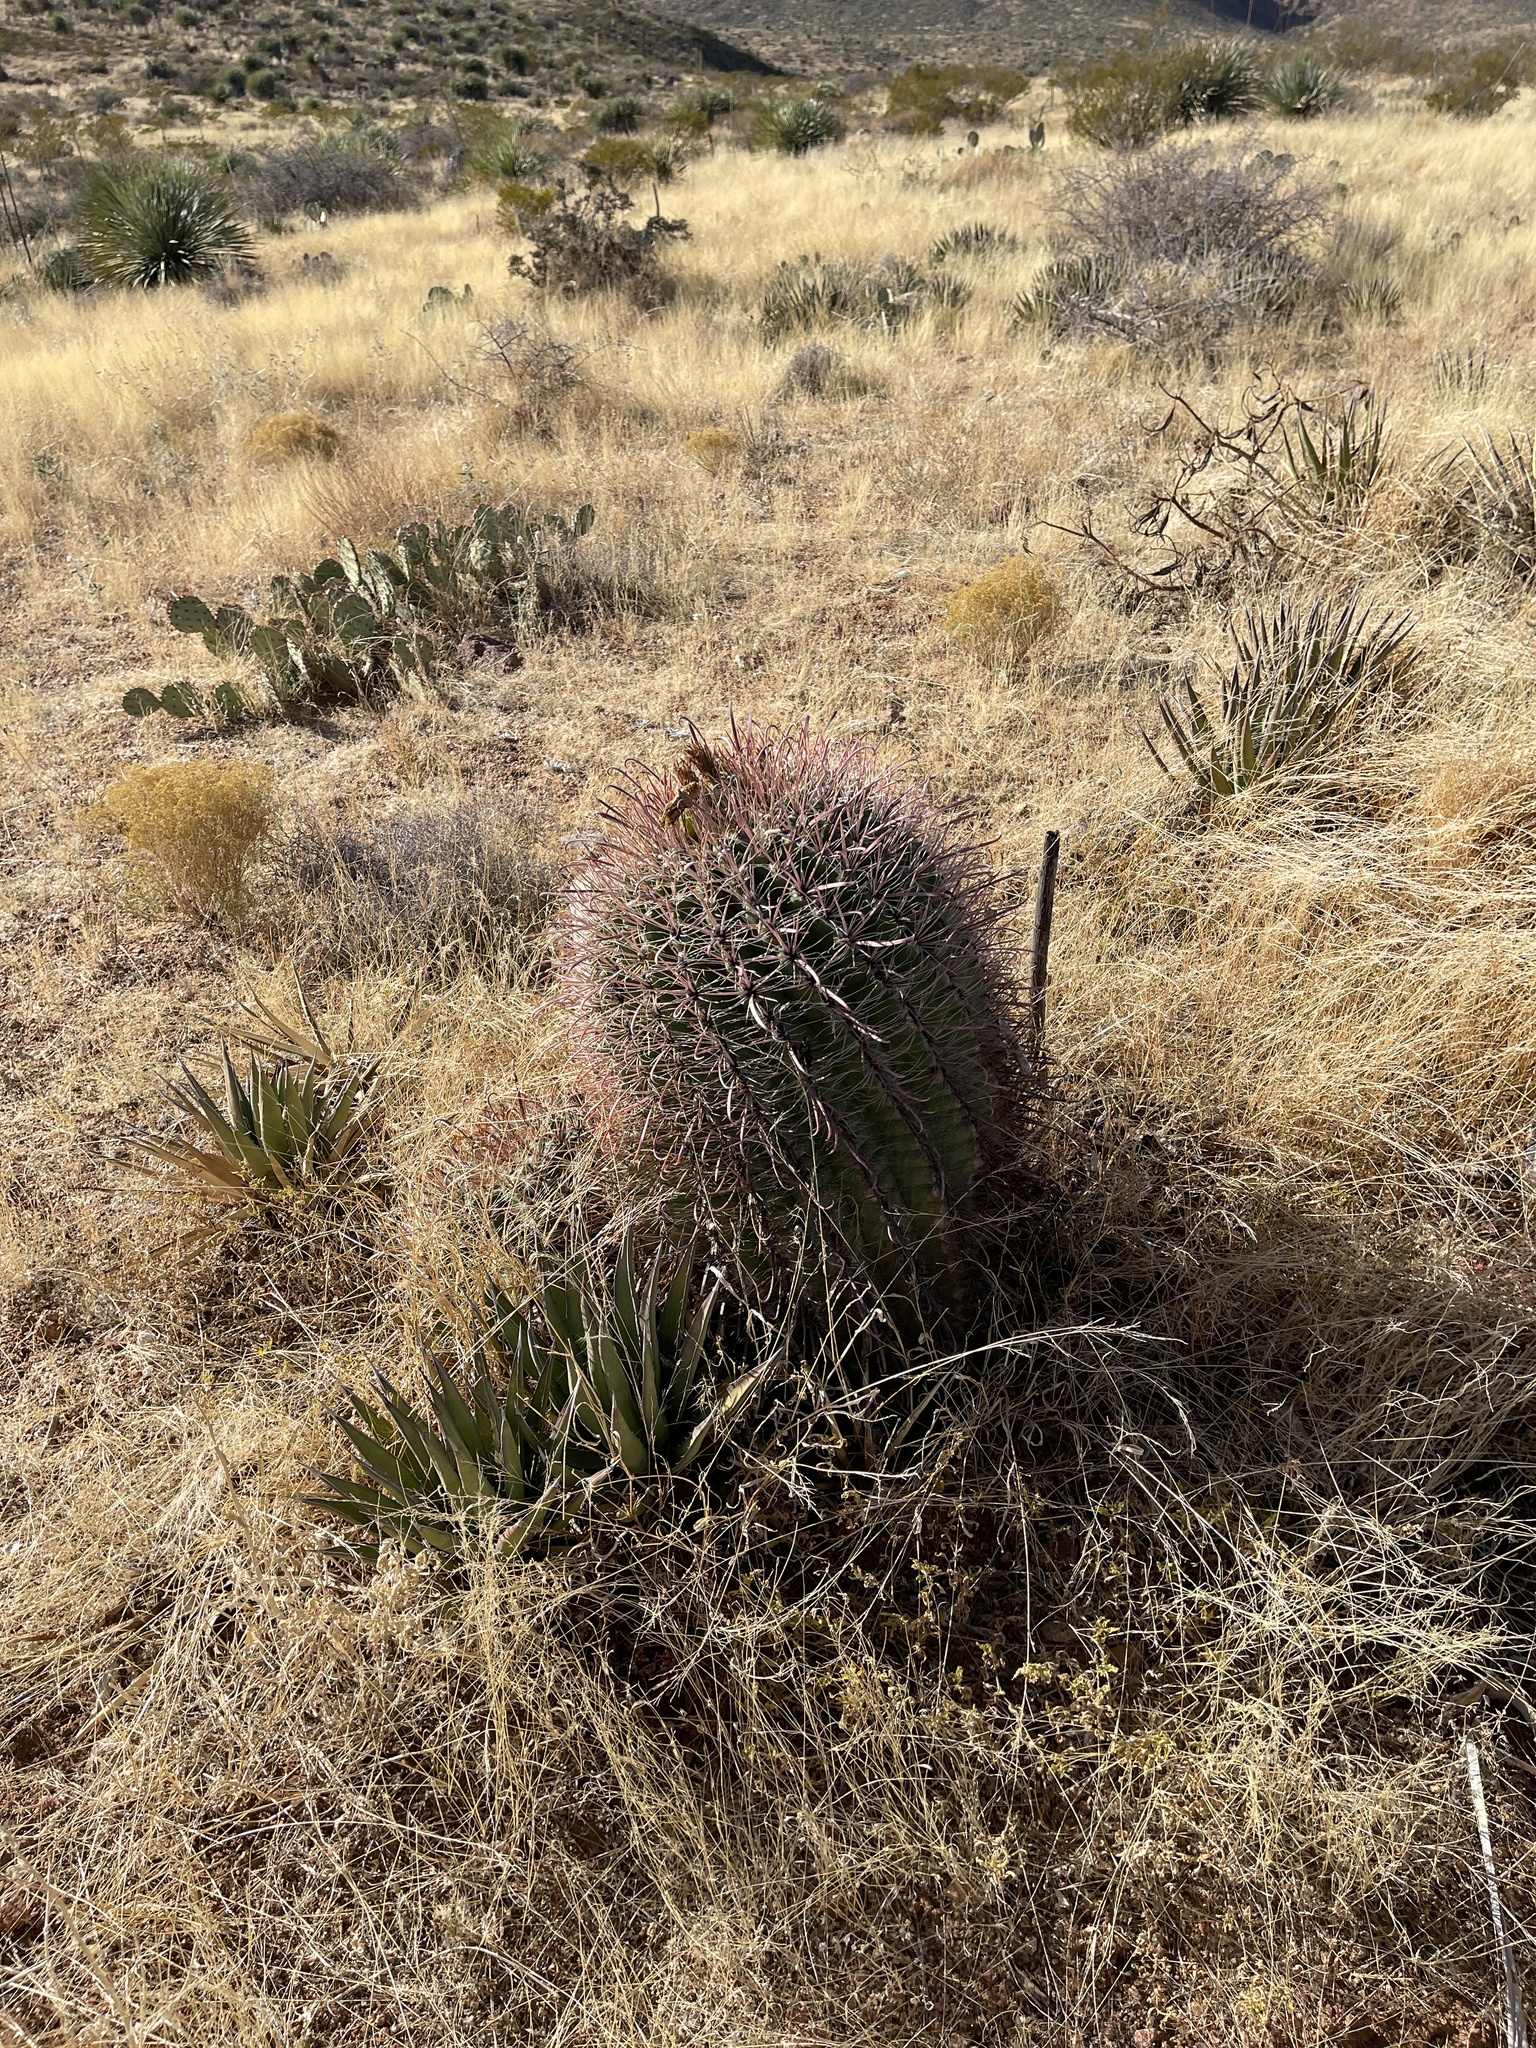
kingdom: Plantae
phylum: Tracheophyta
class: Magnoliopsida
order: Caryophyllales
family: Cactaceae
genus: Ferocactus
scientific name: Ferocactus wislizeni
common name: Candy barrel cactus
